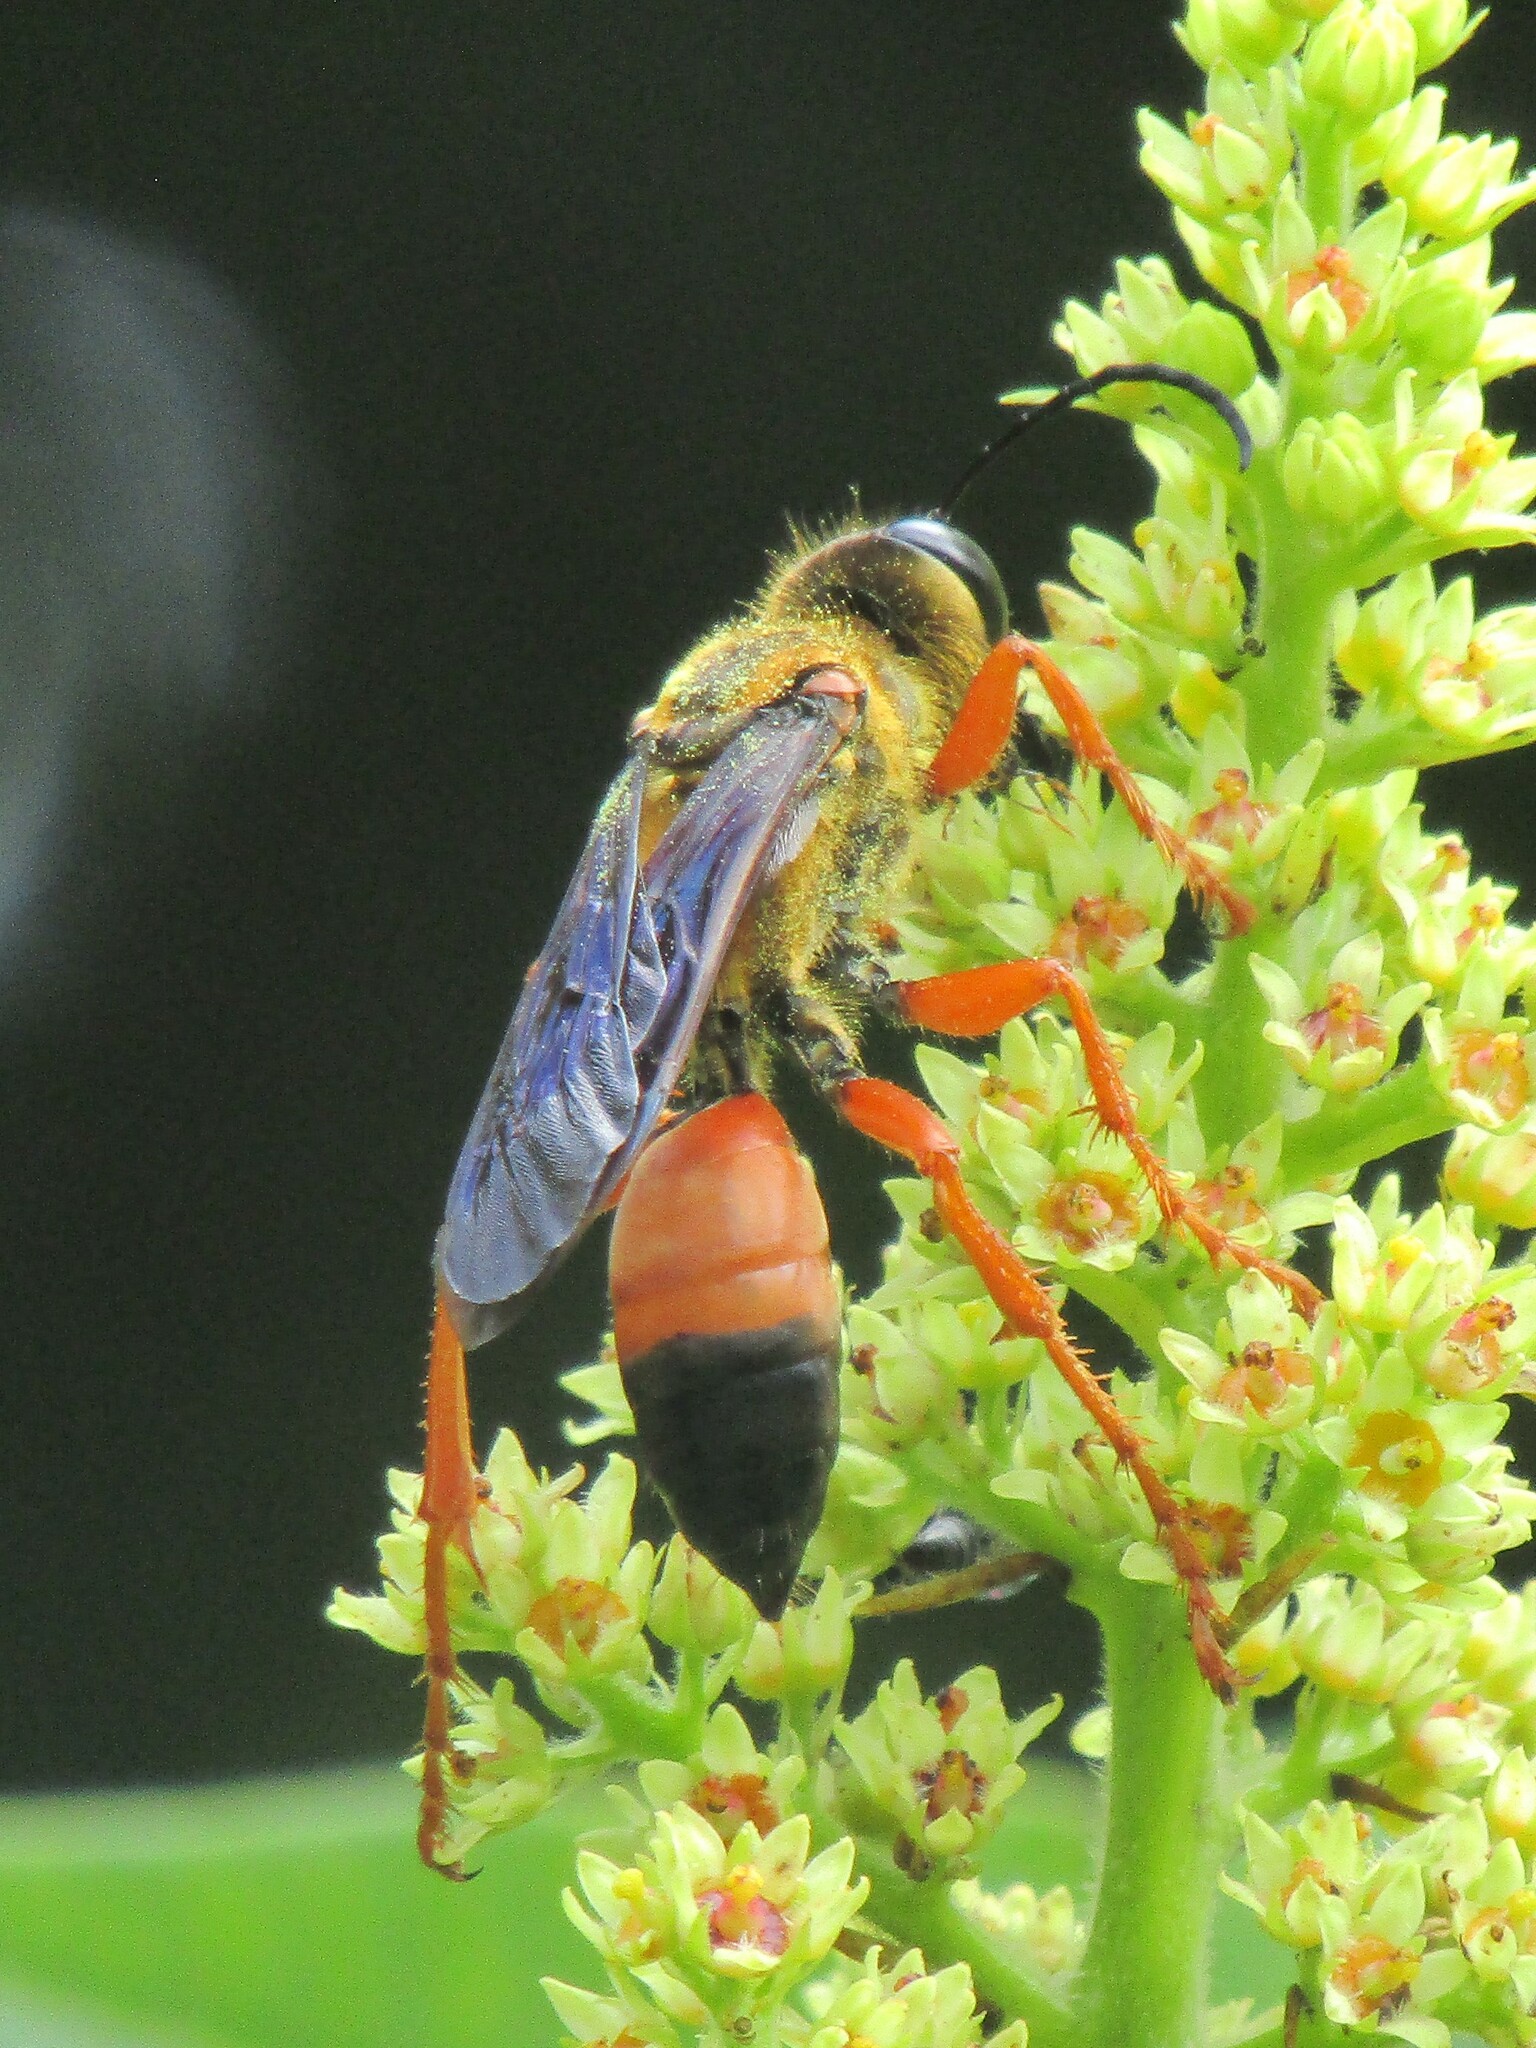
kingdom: Animalia
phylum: Arthropoda
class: Insecta
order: Hymenoptera
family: Sphecidae
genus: Sphex
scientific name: Sphex ichneumoneus
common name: Great golden digger wasp
